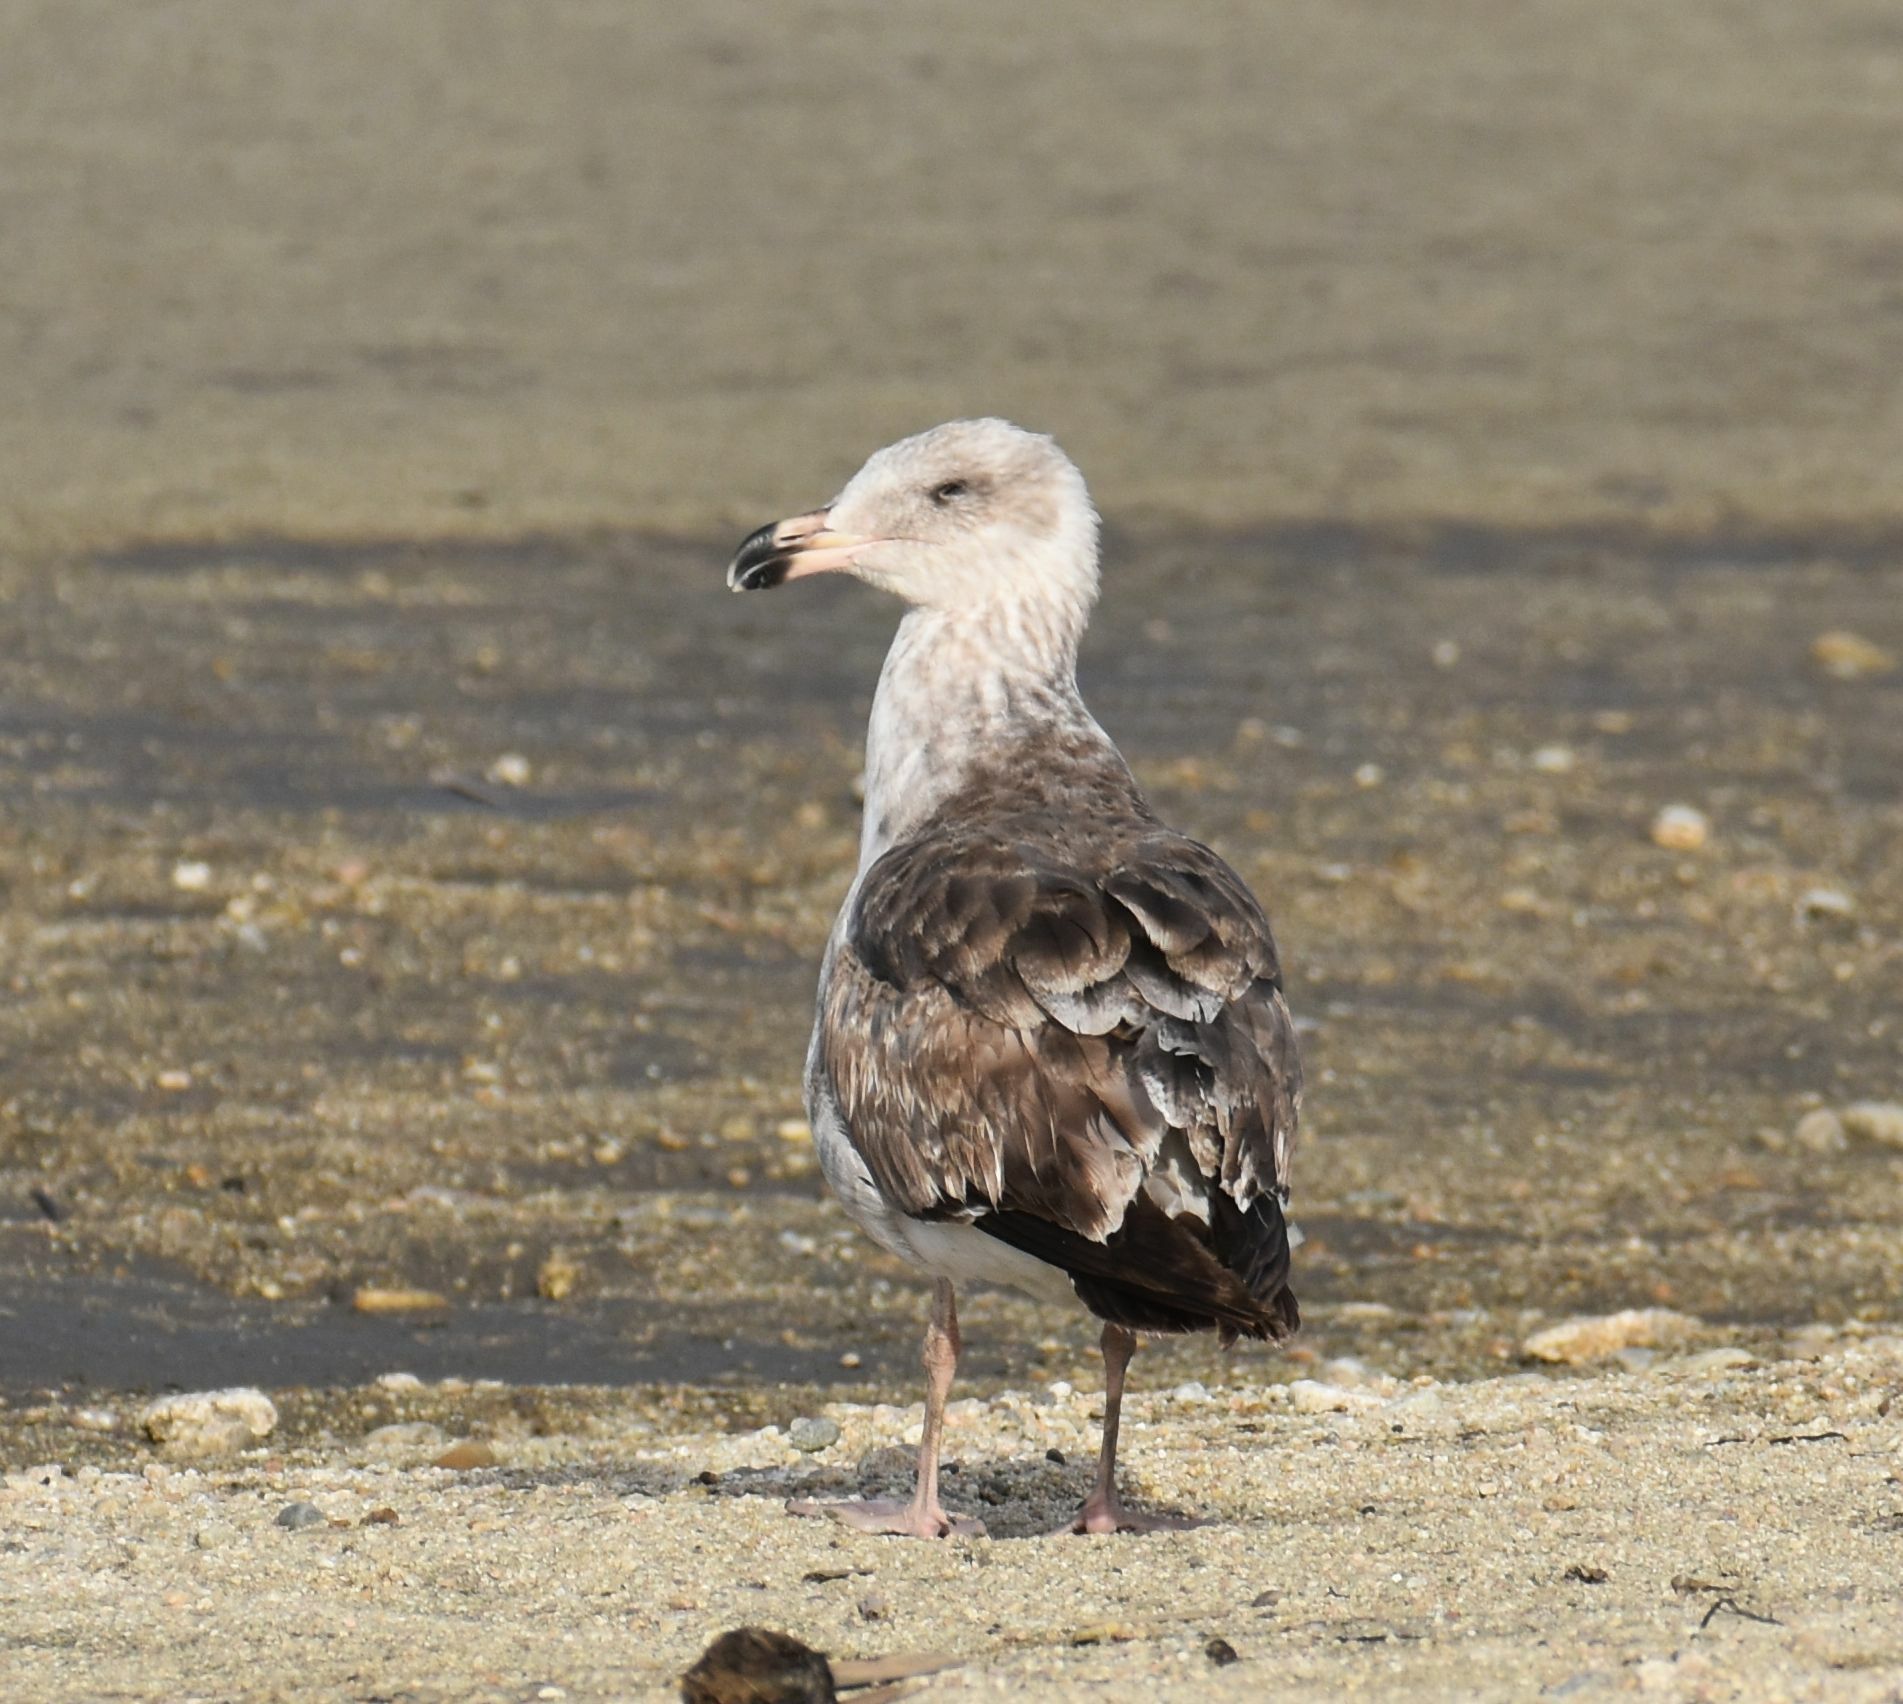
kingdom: Animalia
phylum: Chordata
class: Aves
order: Charadriiformes
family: Laridae
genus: Larus
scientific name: Larus occidentalis
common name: Western gull
